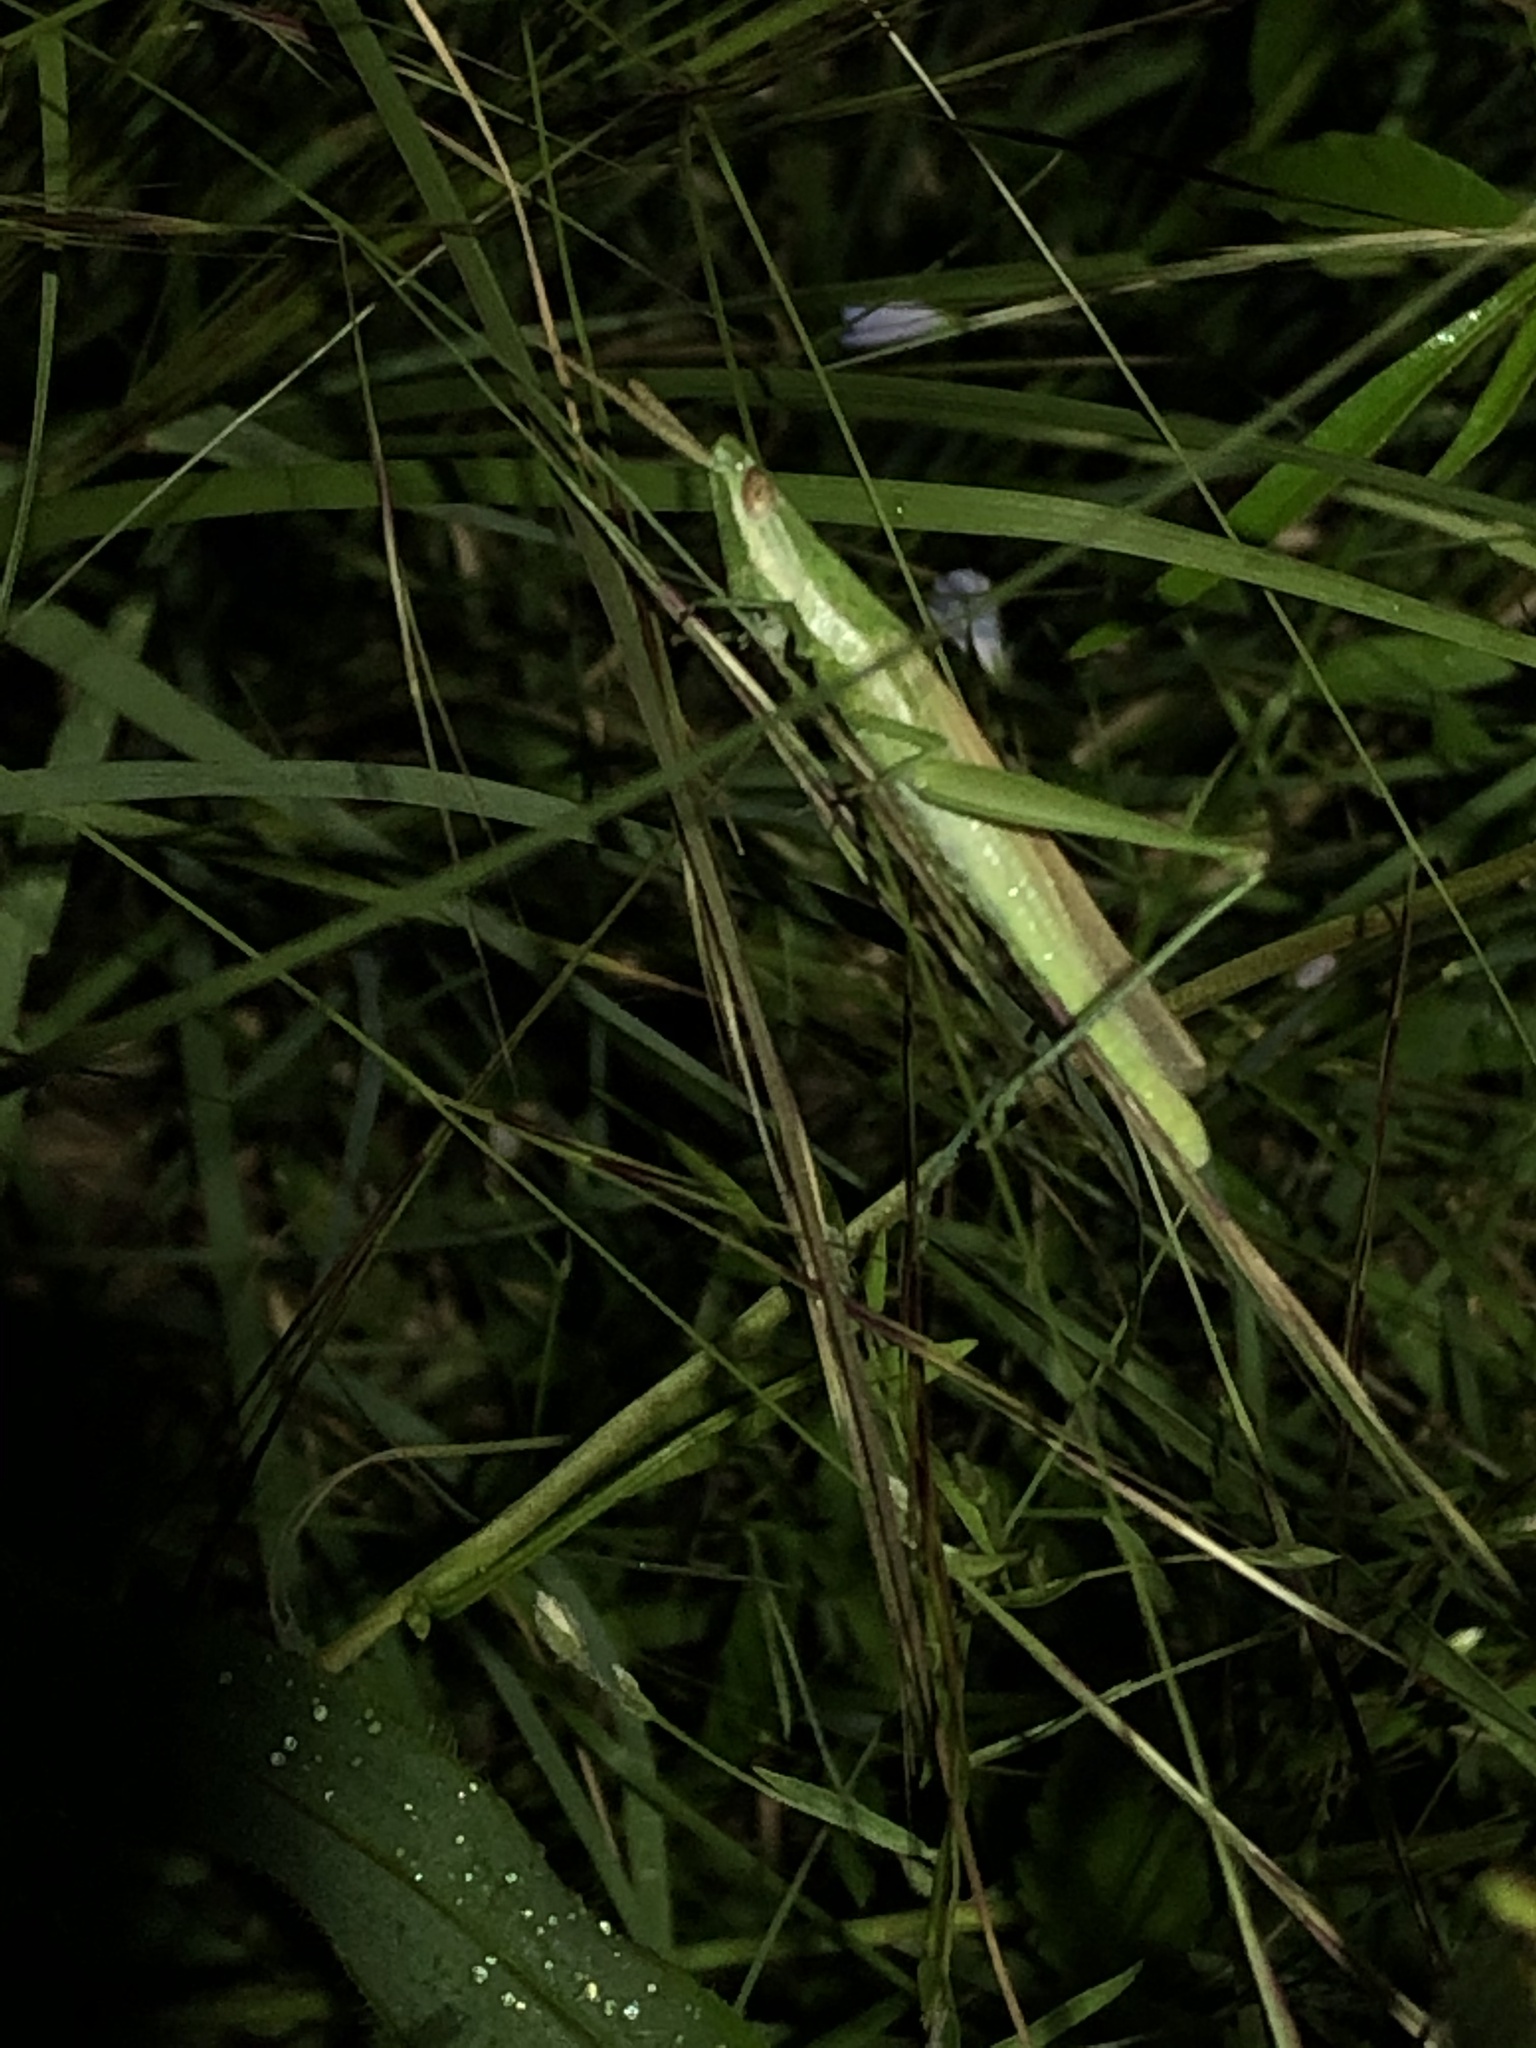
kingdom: Animalia
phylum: Arthropoda
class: Insecta
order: Orthoptera
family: Acrididae
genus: Paropomala
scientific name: Paropomala pallida
